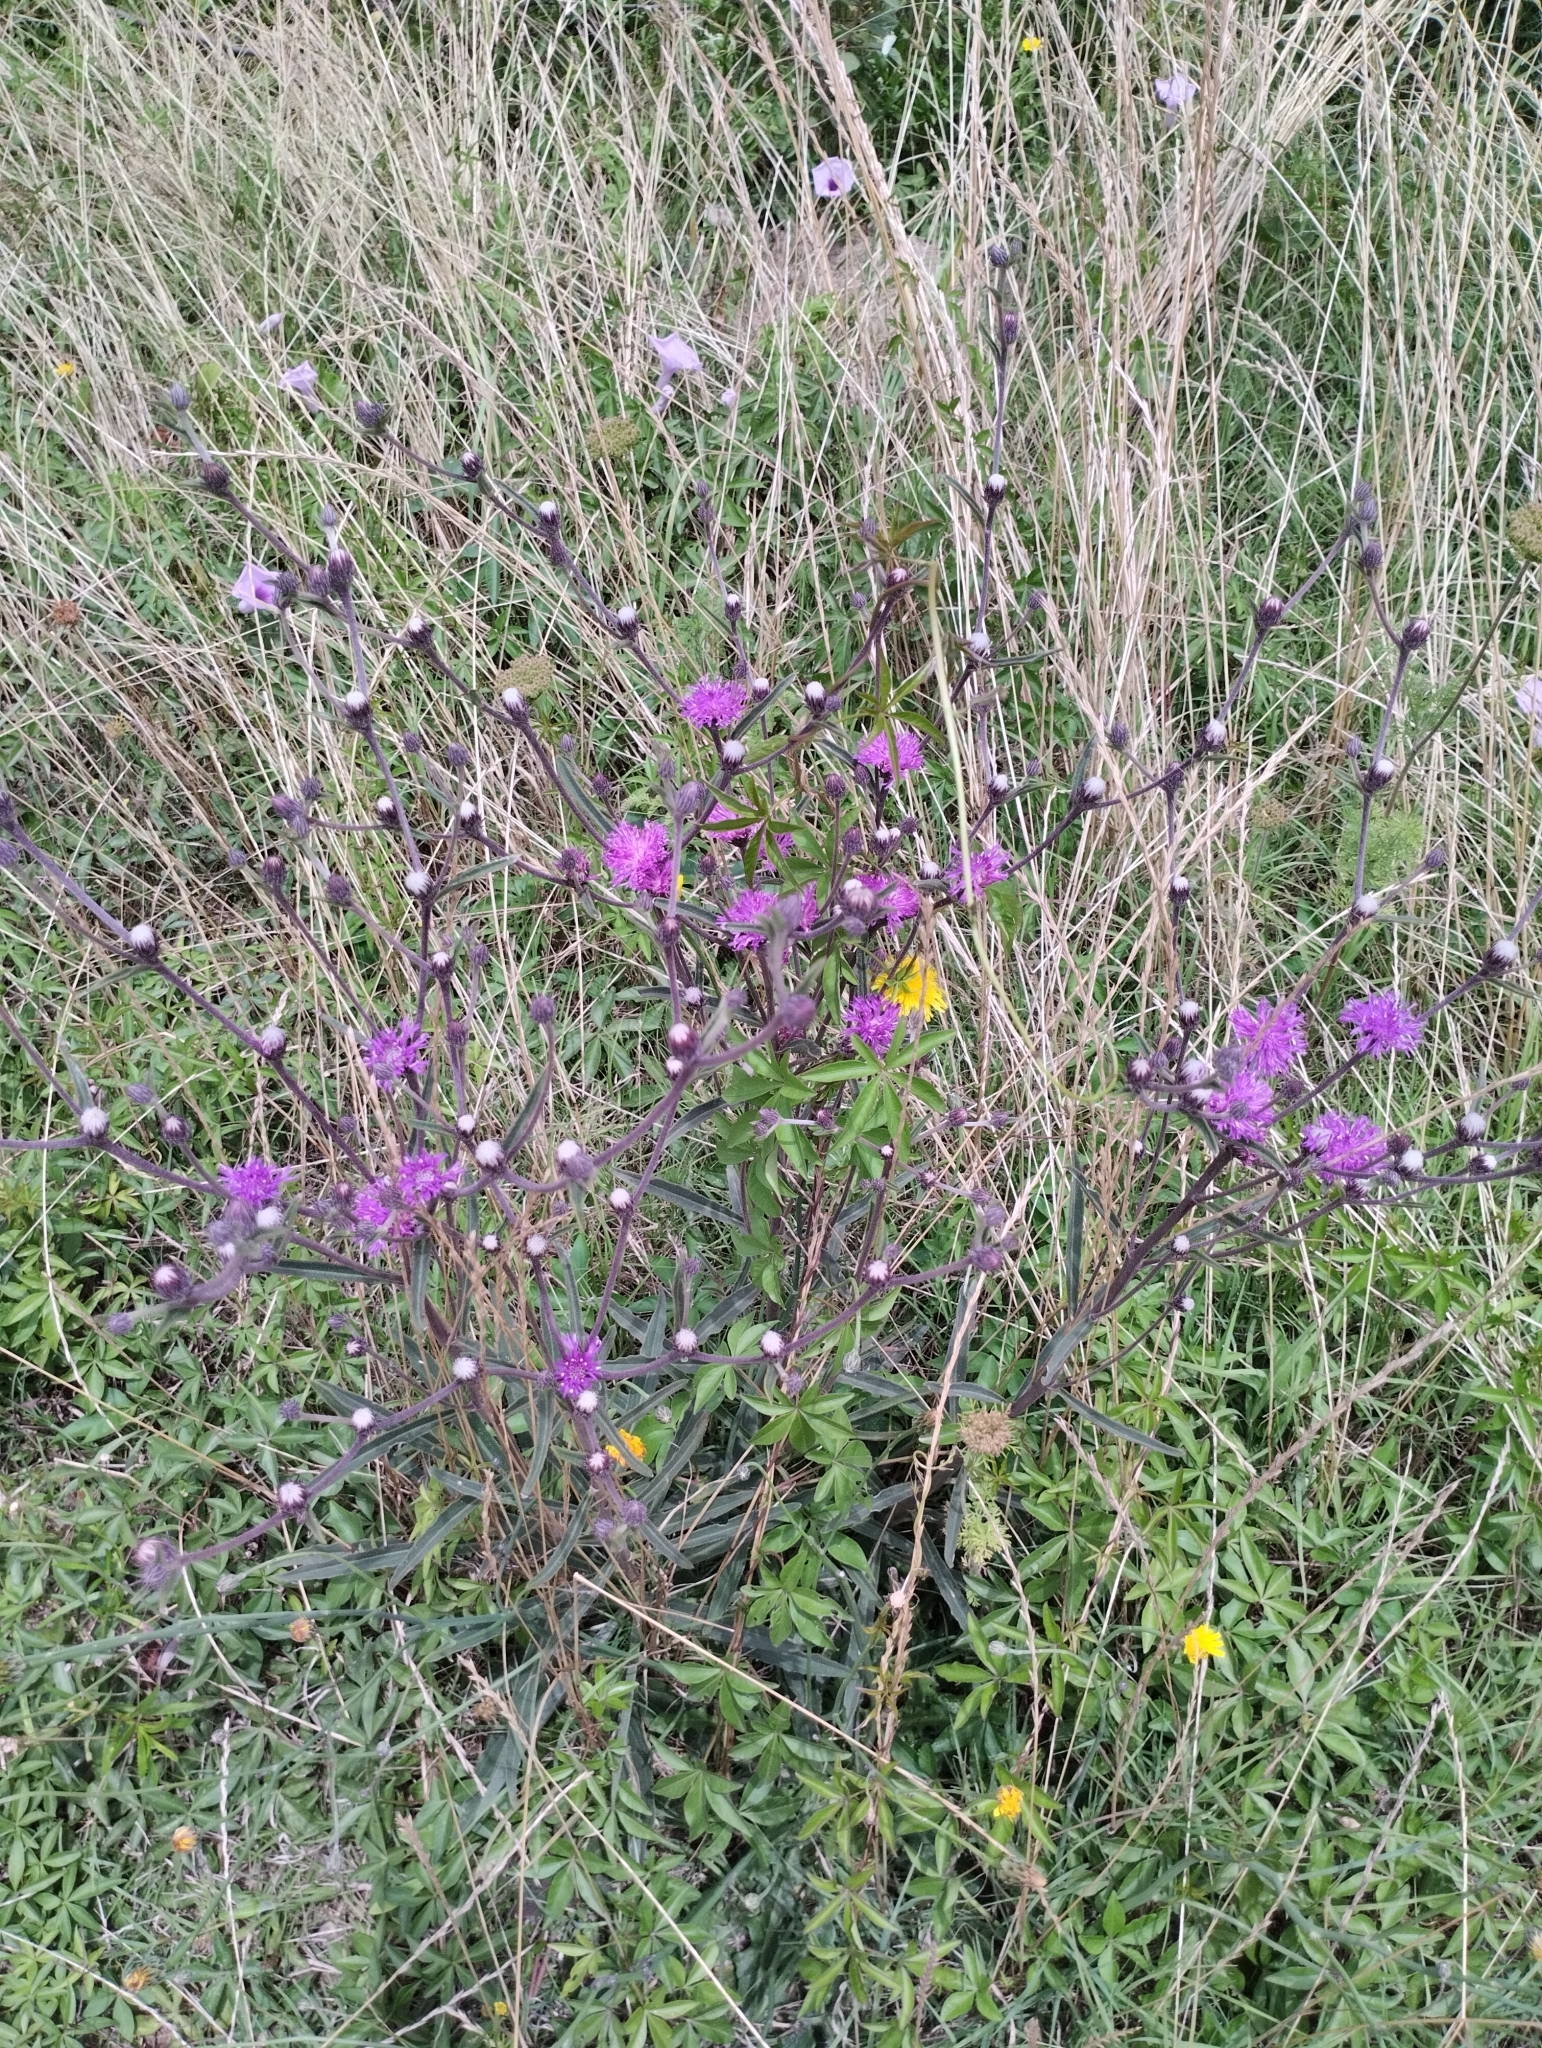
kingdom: Plantae
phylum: Tracheophyta
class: Magnoliopsida
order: Asterales
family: Asteraceae
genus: Chrysolaena
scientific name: Chrysolaena flexuosa
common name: Zig-zag vernonia
